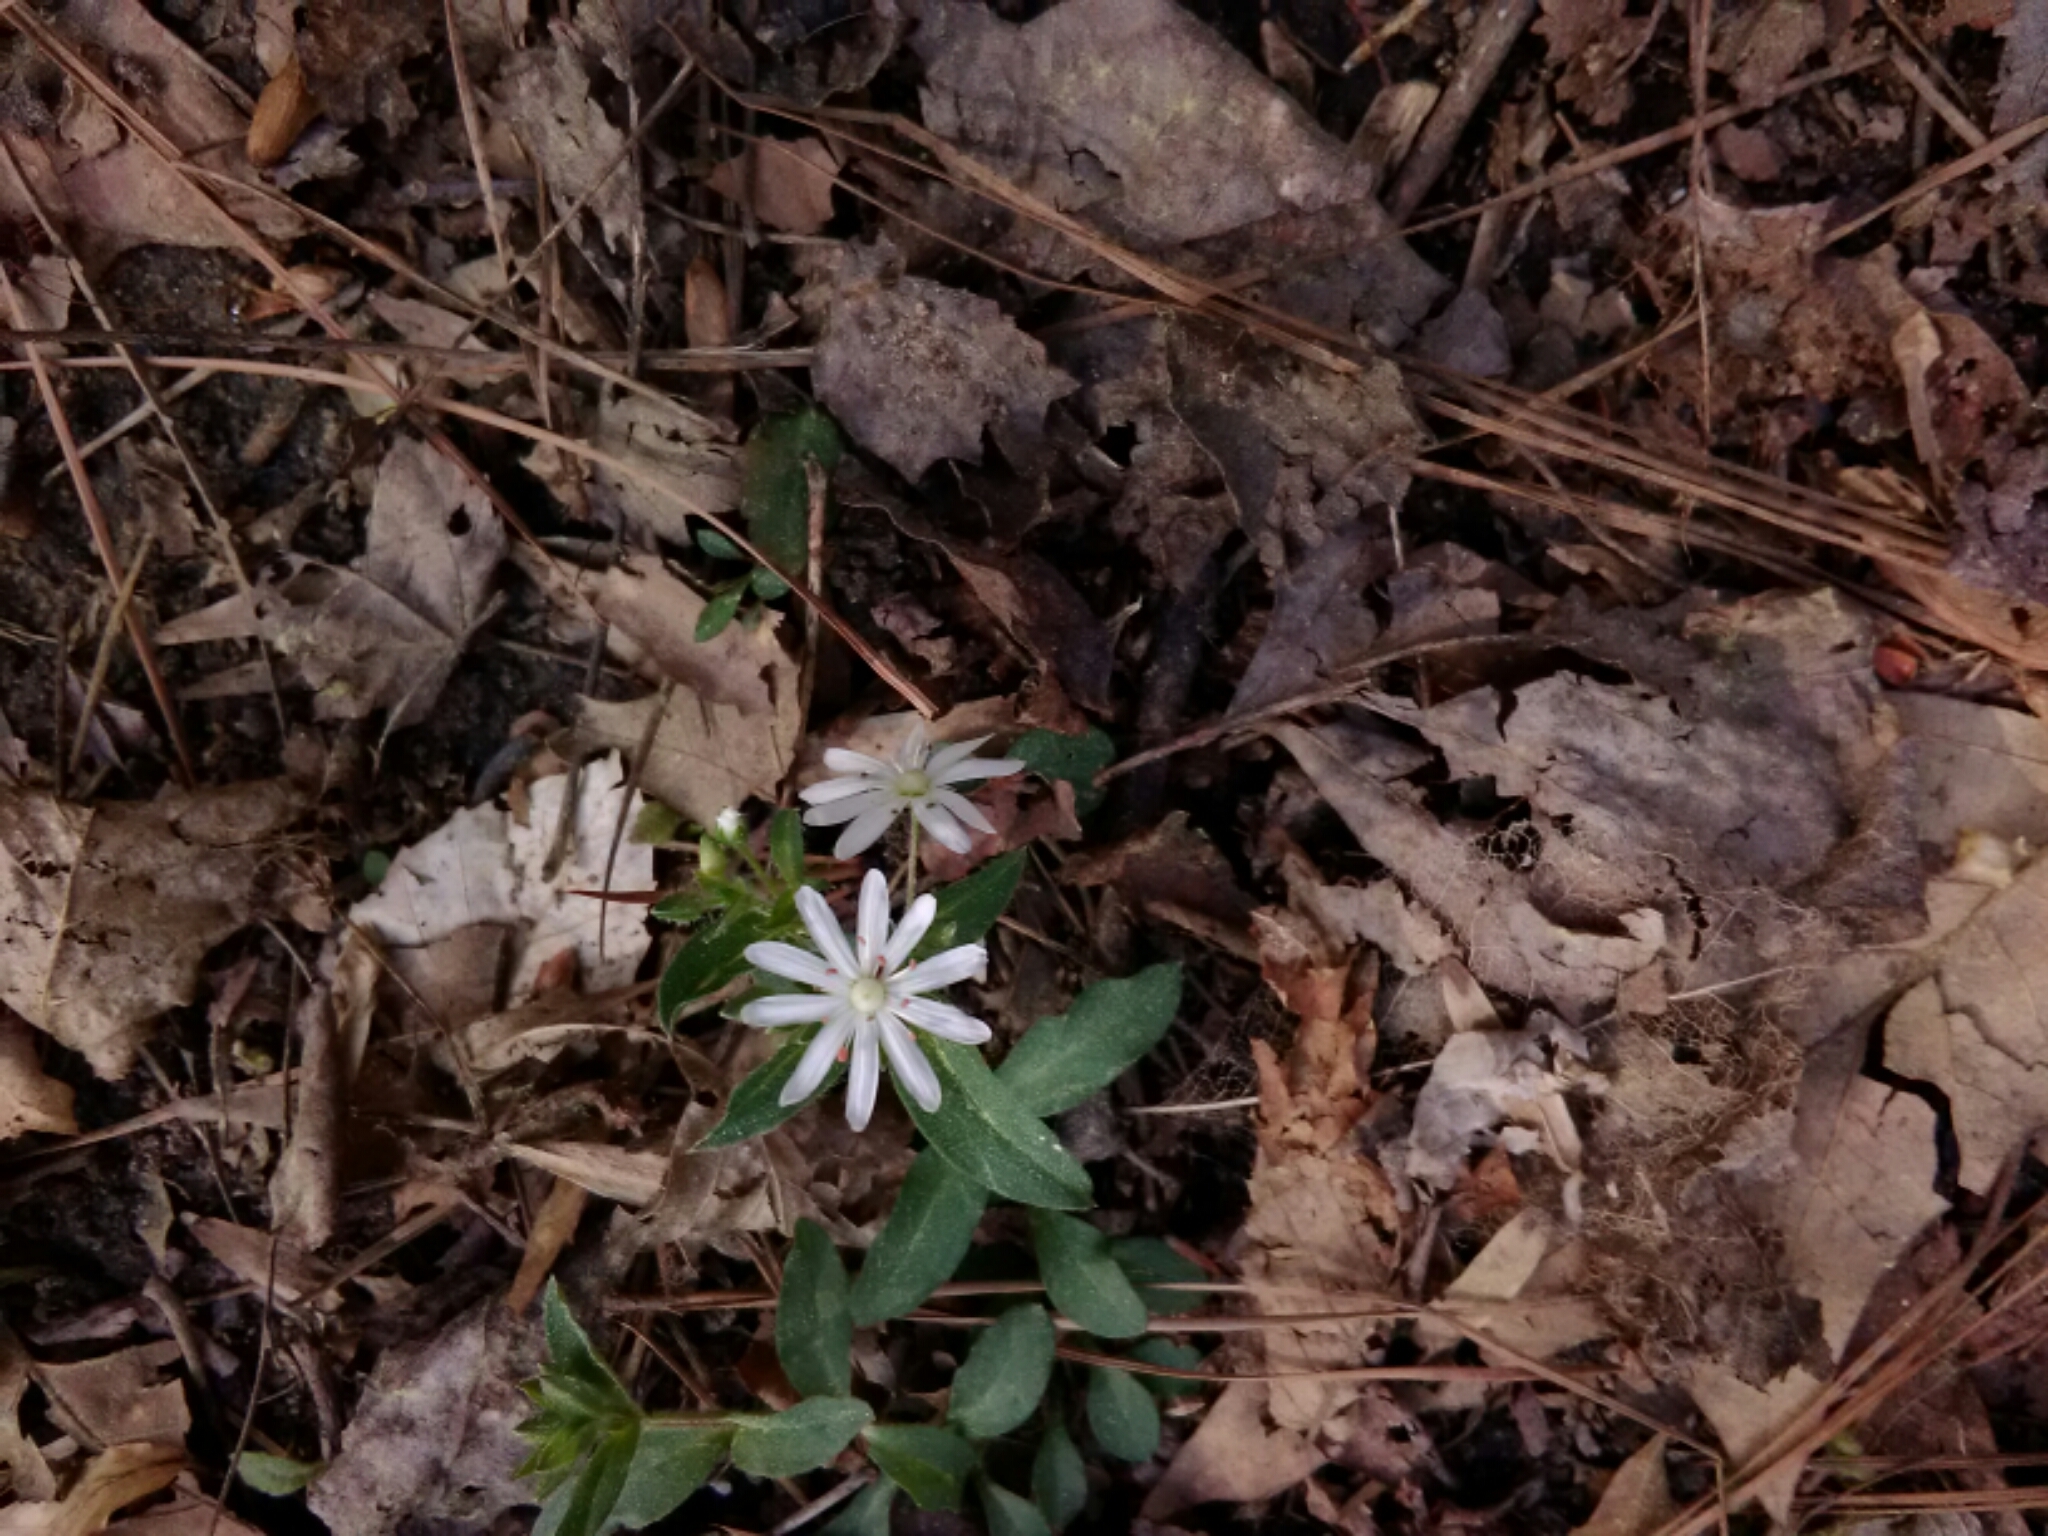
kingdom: Plantae
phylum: Tracheophyta
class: Magnoliopsida
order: Caryophyllales
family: Caryophyllaceae
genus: Stellaria
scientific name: Stellaria pubera
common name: Star chickweed
